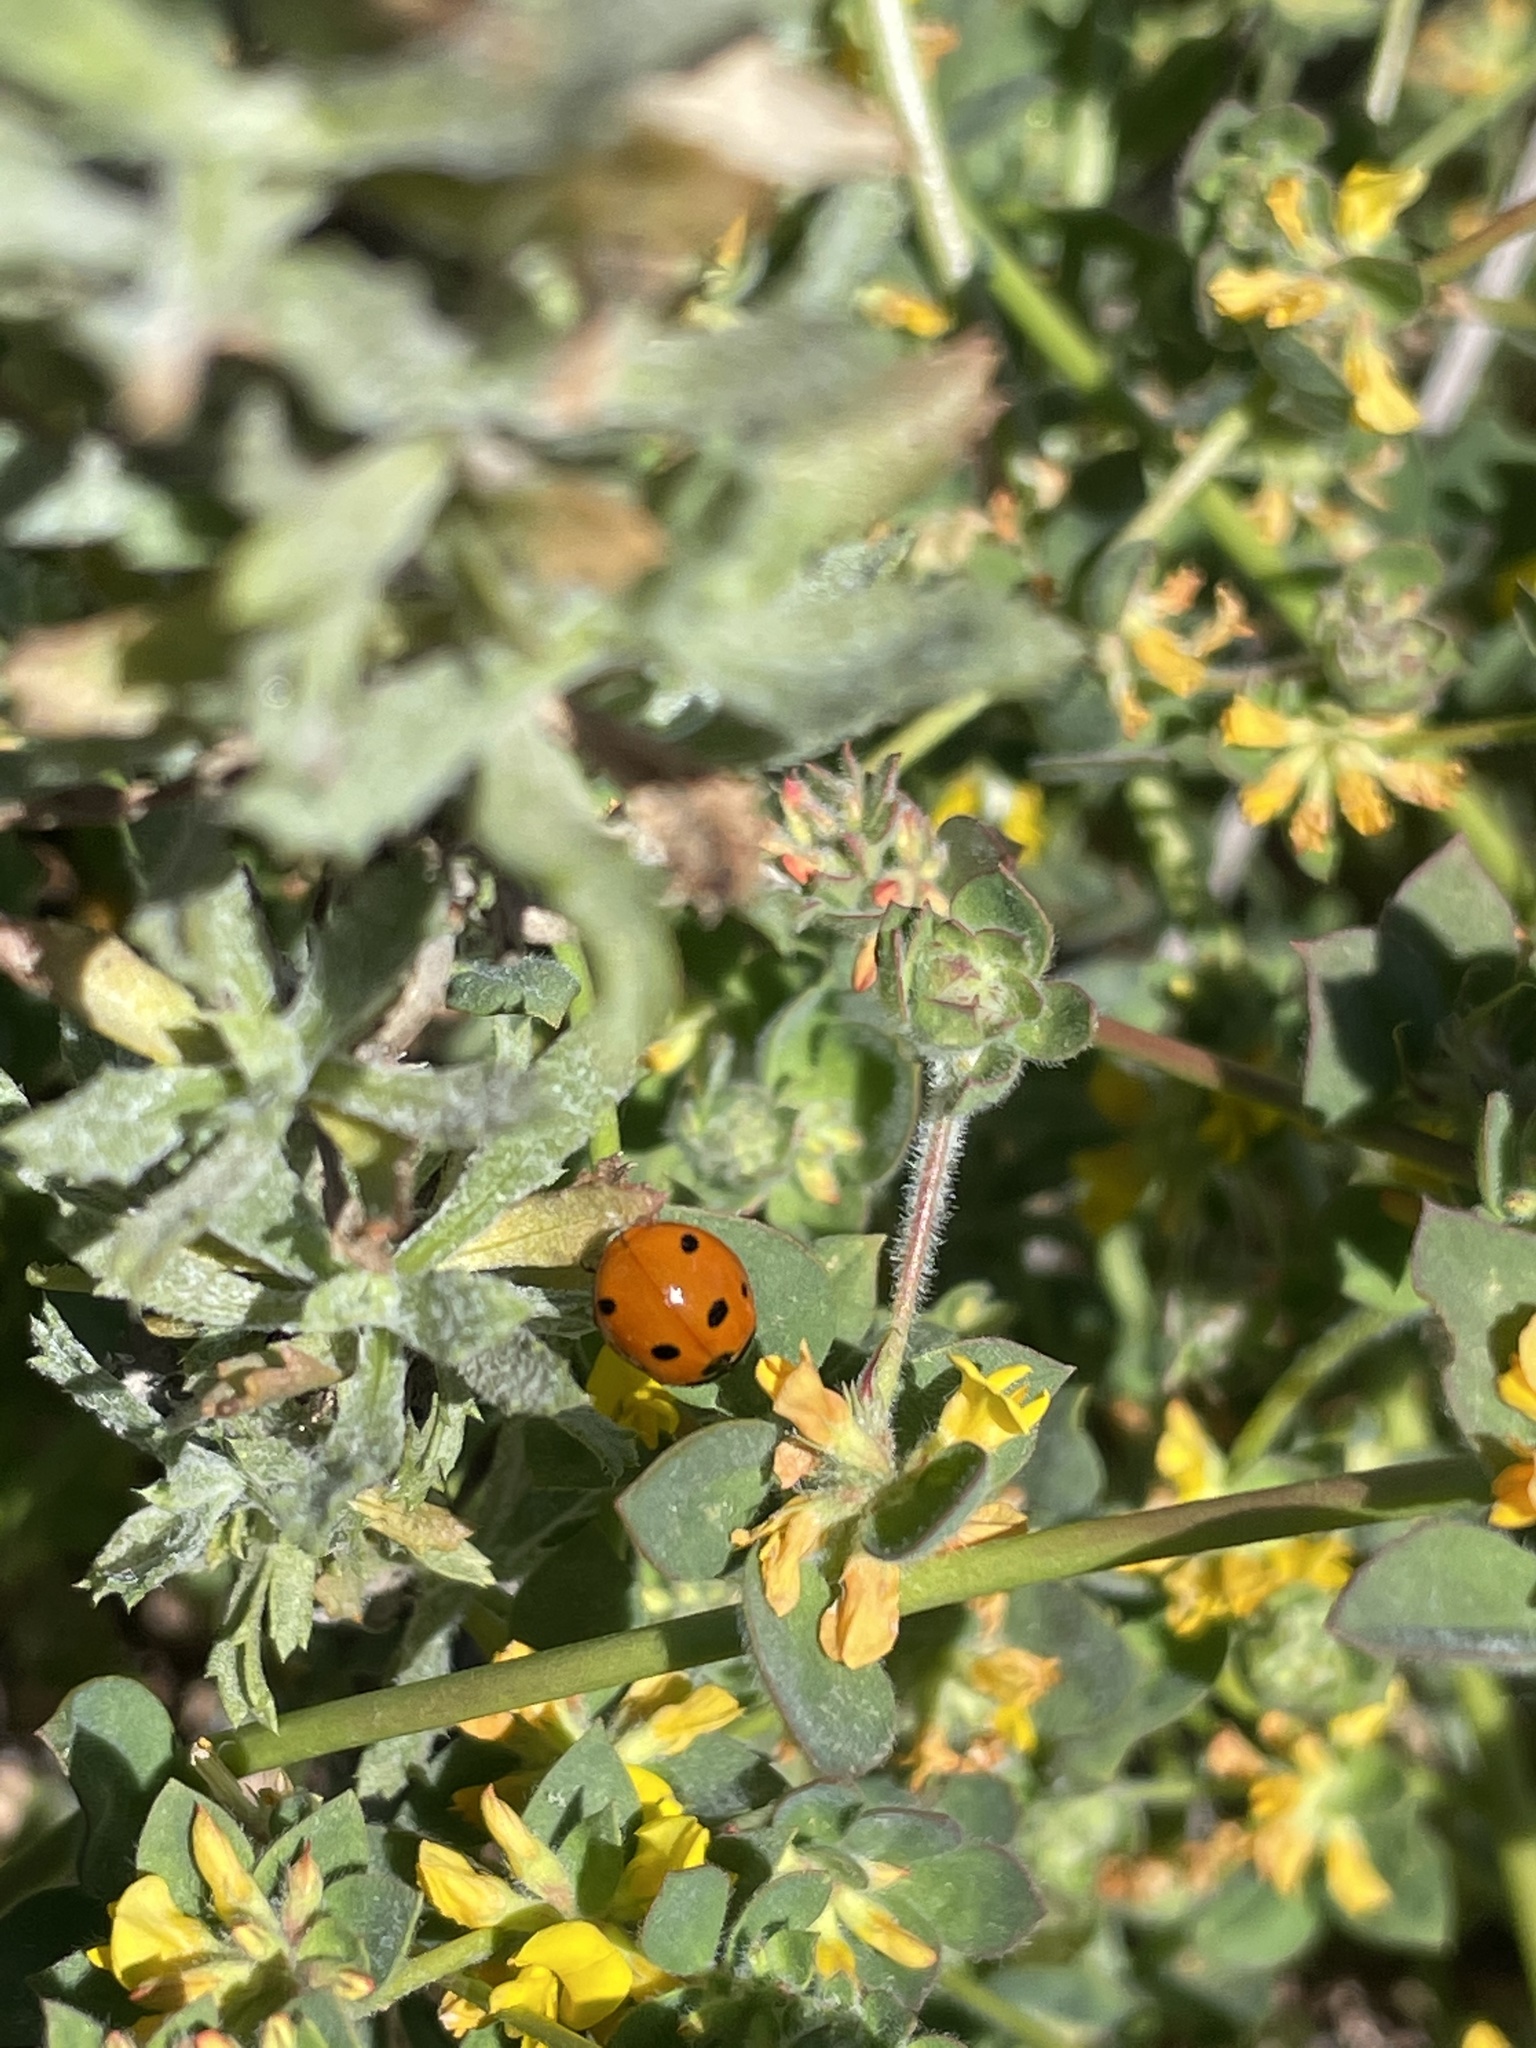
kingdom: Animalia
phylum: Arthropoda
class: Insecta
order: Coleoptera
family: Coccinellidae
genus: Coccinella
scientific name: Coccinella septempunctata
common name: Sevenspotted lady beetle
